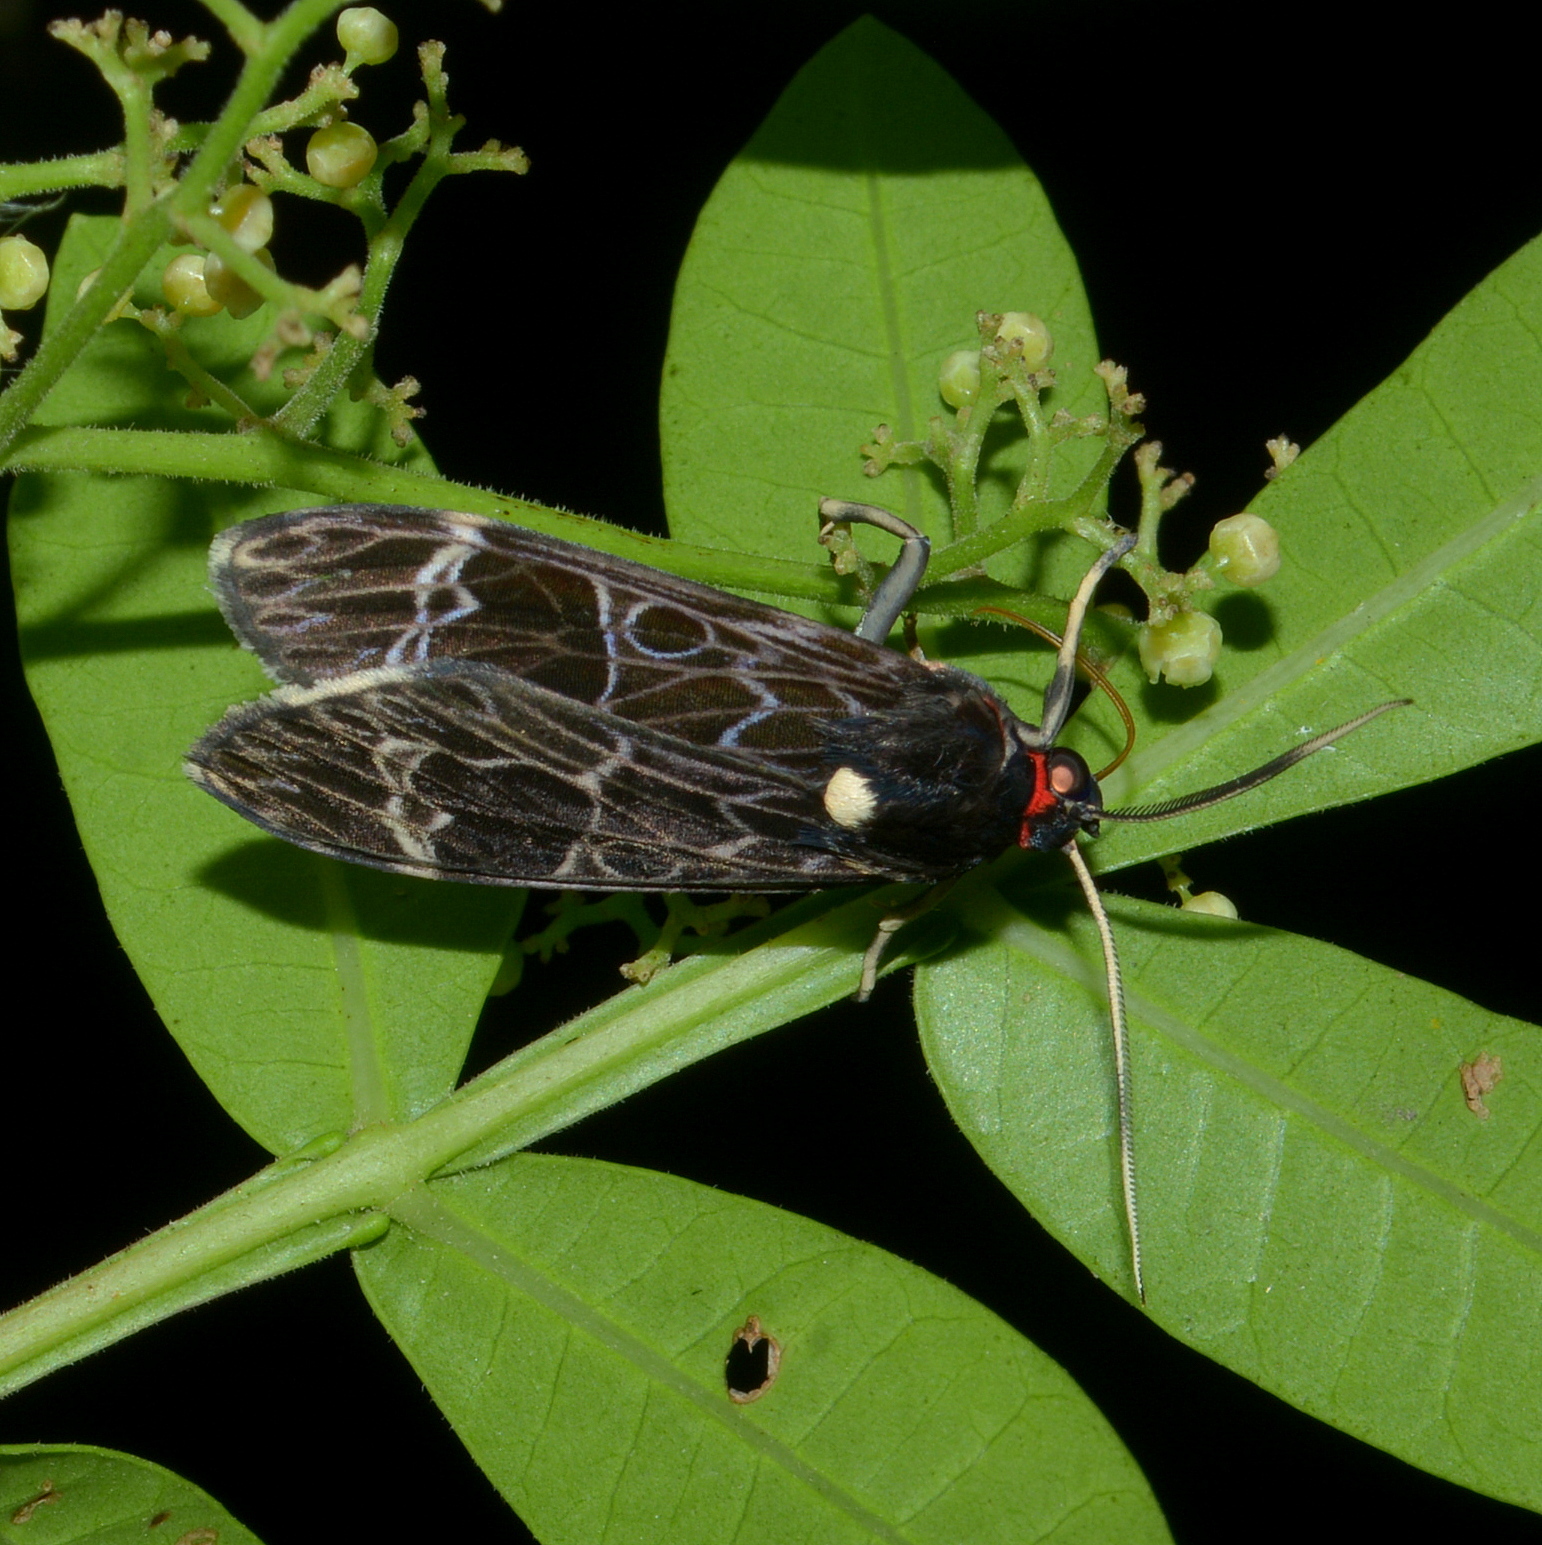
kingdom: Animalia
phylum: Arthropoda
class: Insecta
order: Lepidoptera
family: Erebidae
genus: Eucereon
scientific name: Eucereon chalcodon
